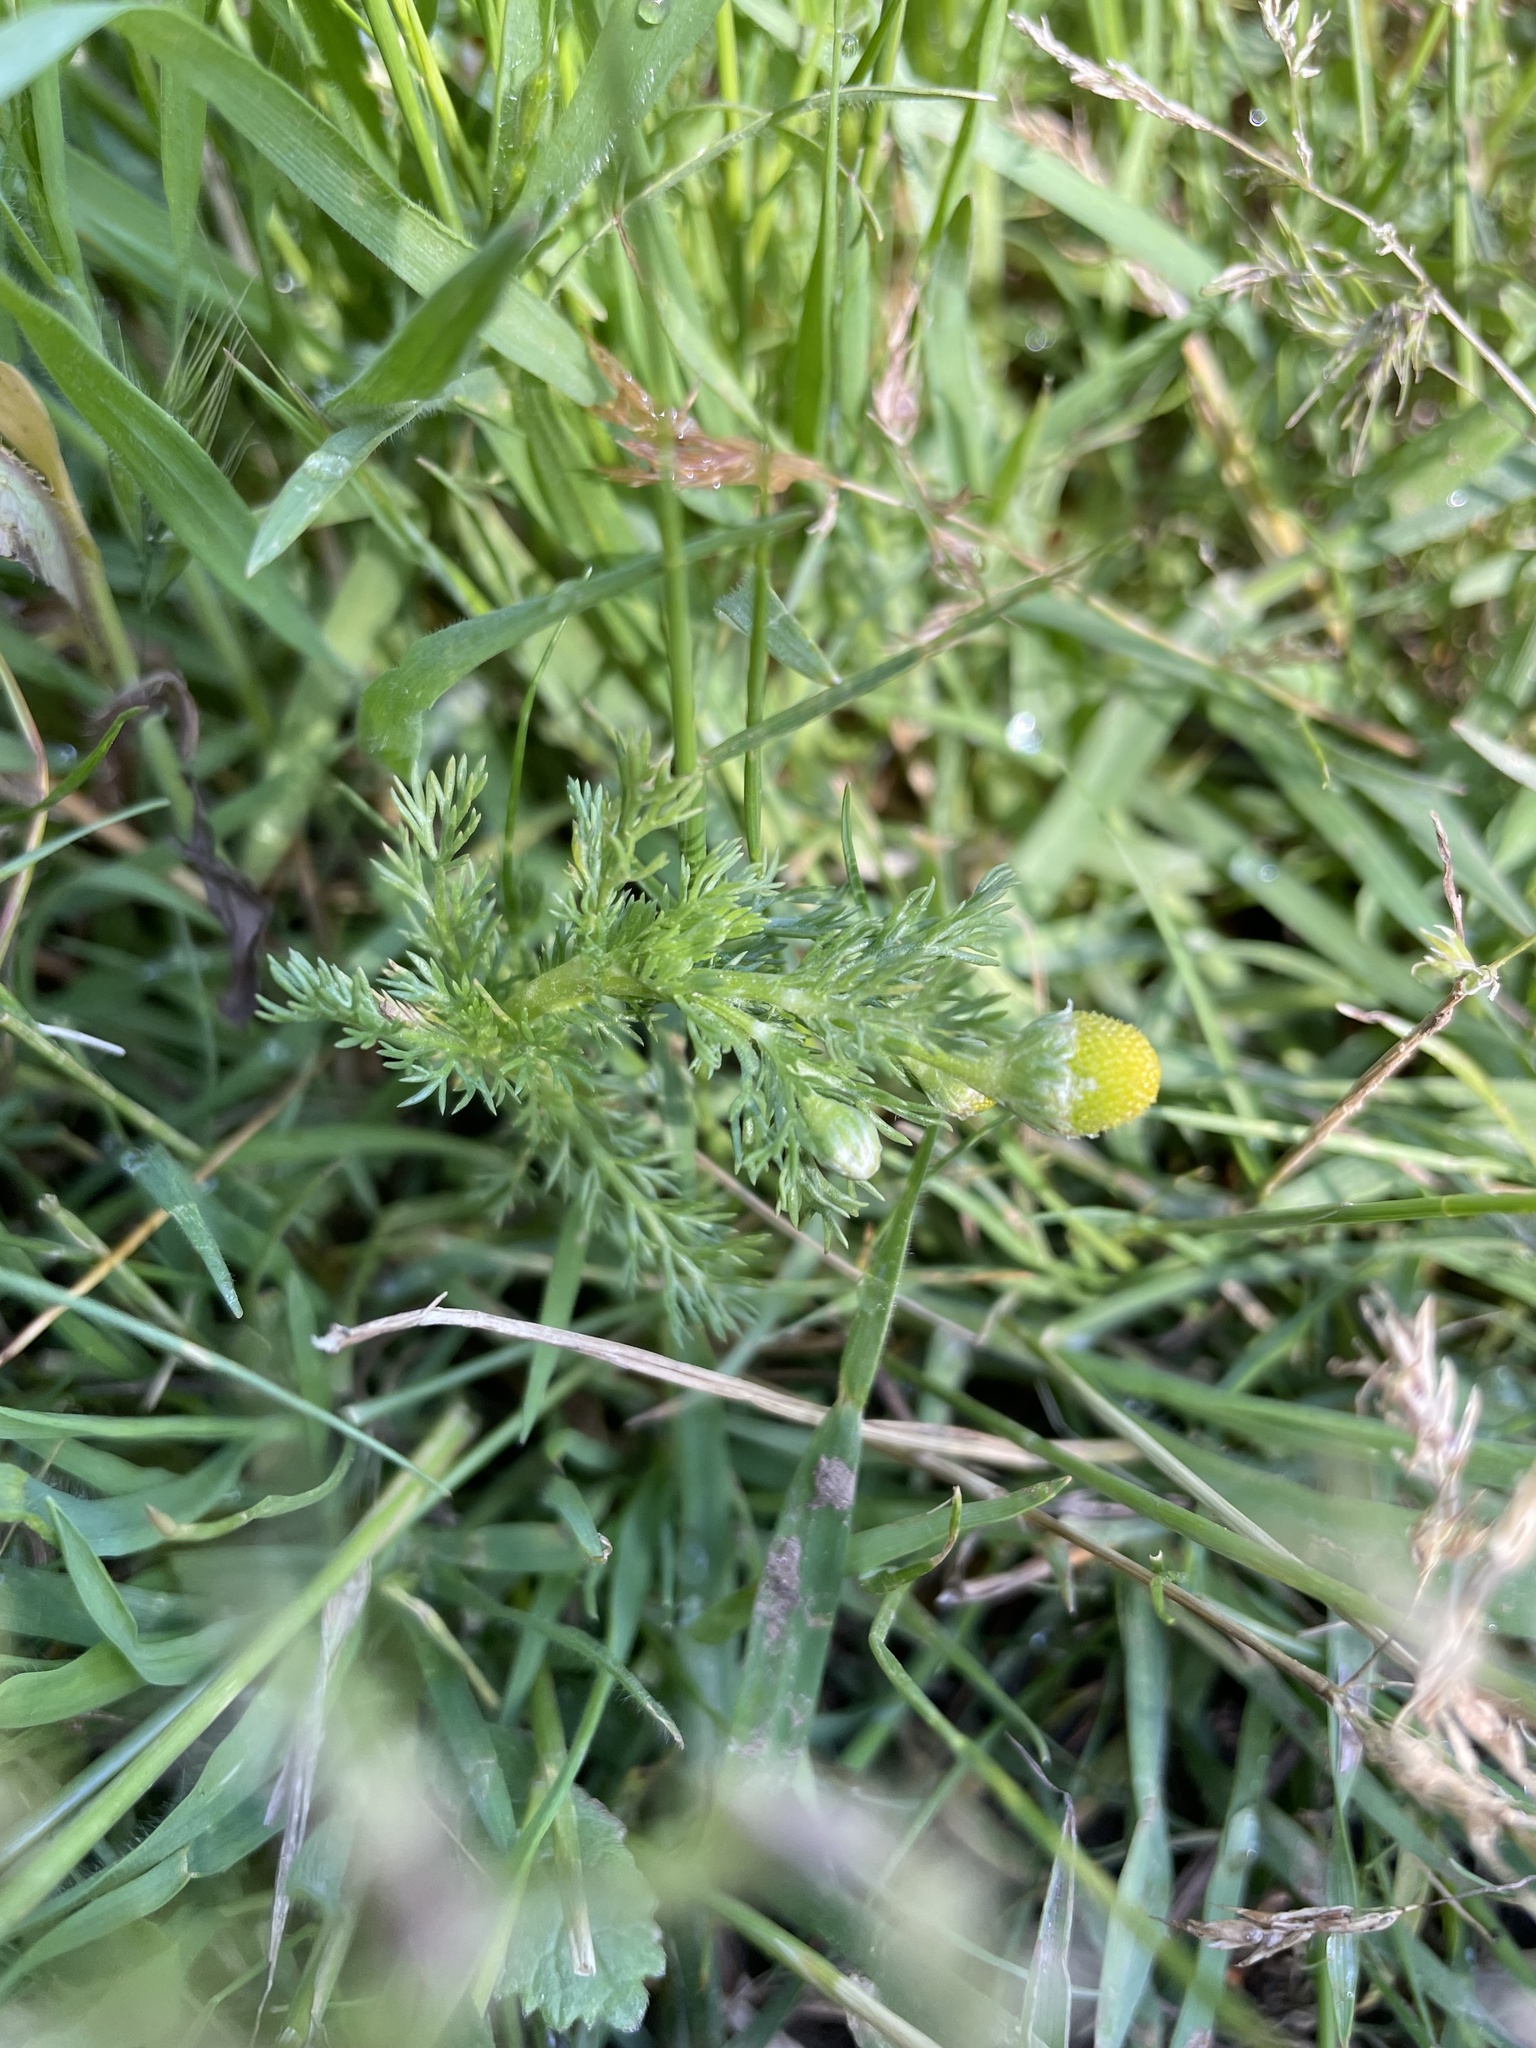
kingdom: Plantae
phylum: Tracheophyta
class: Magnoliopsida
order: Asterales
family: Asteraceae
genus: Matricaria
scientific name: Matricaria discoidea
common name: Disc mayweed
